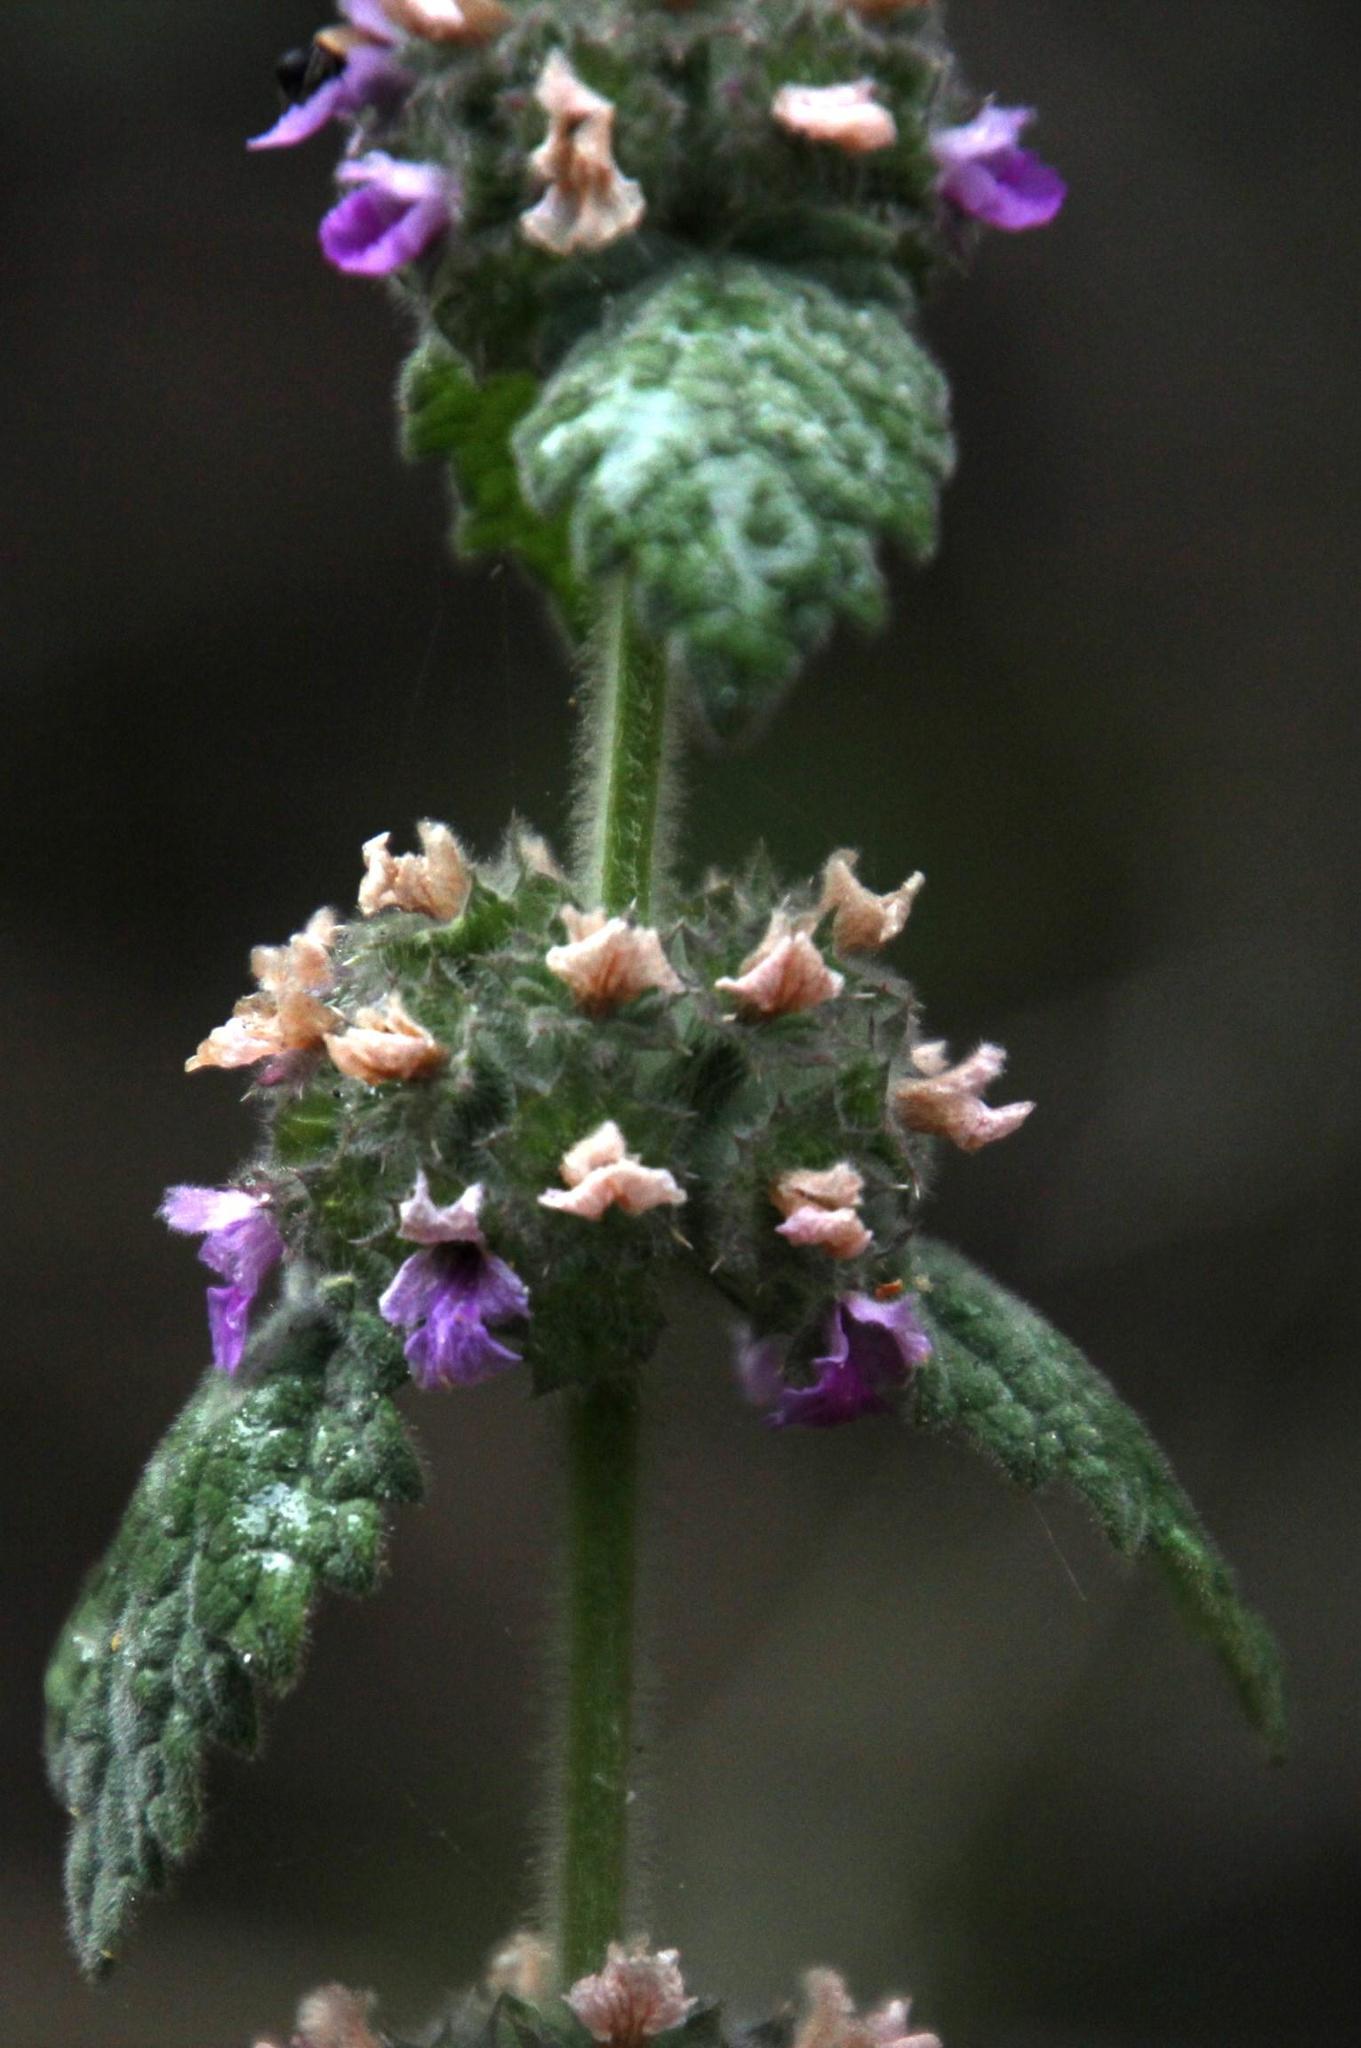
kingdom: Plantae
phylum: Tracheophyta
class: Magnoliopsida
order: Lamiales
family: Lamiaceae
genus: Pseudodictamnus
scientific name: Pseudodictamnus africanus
